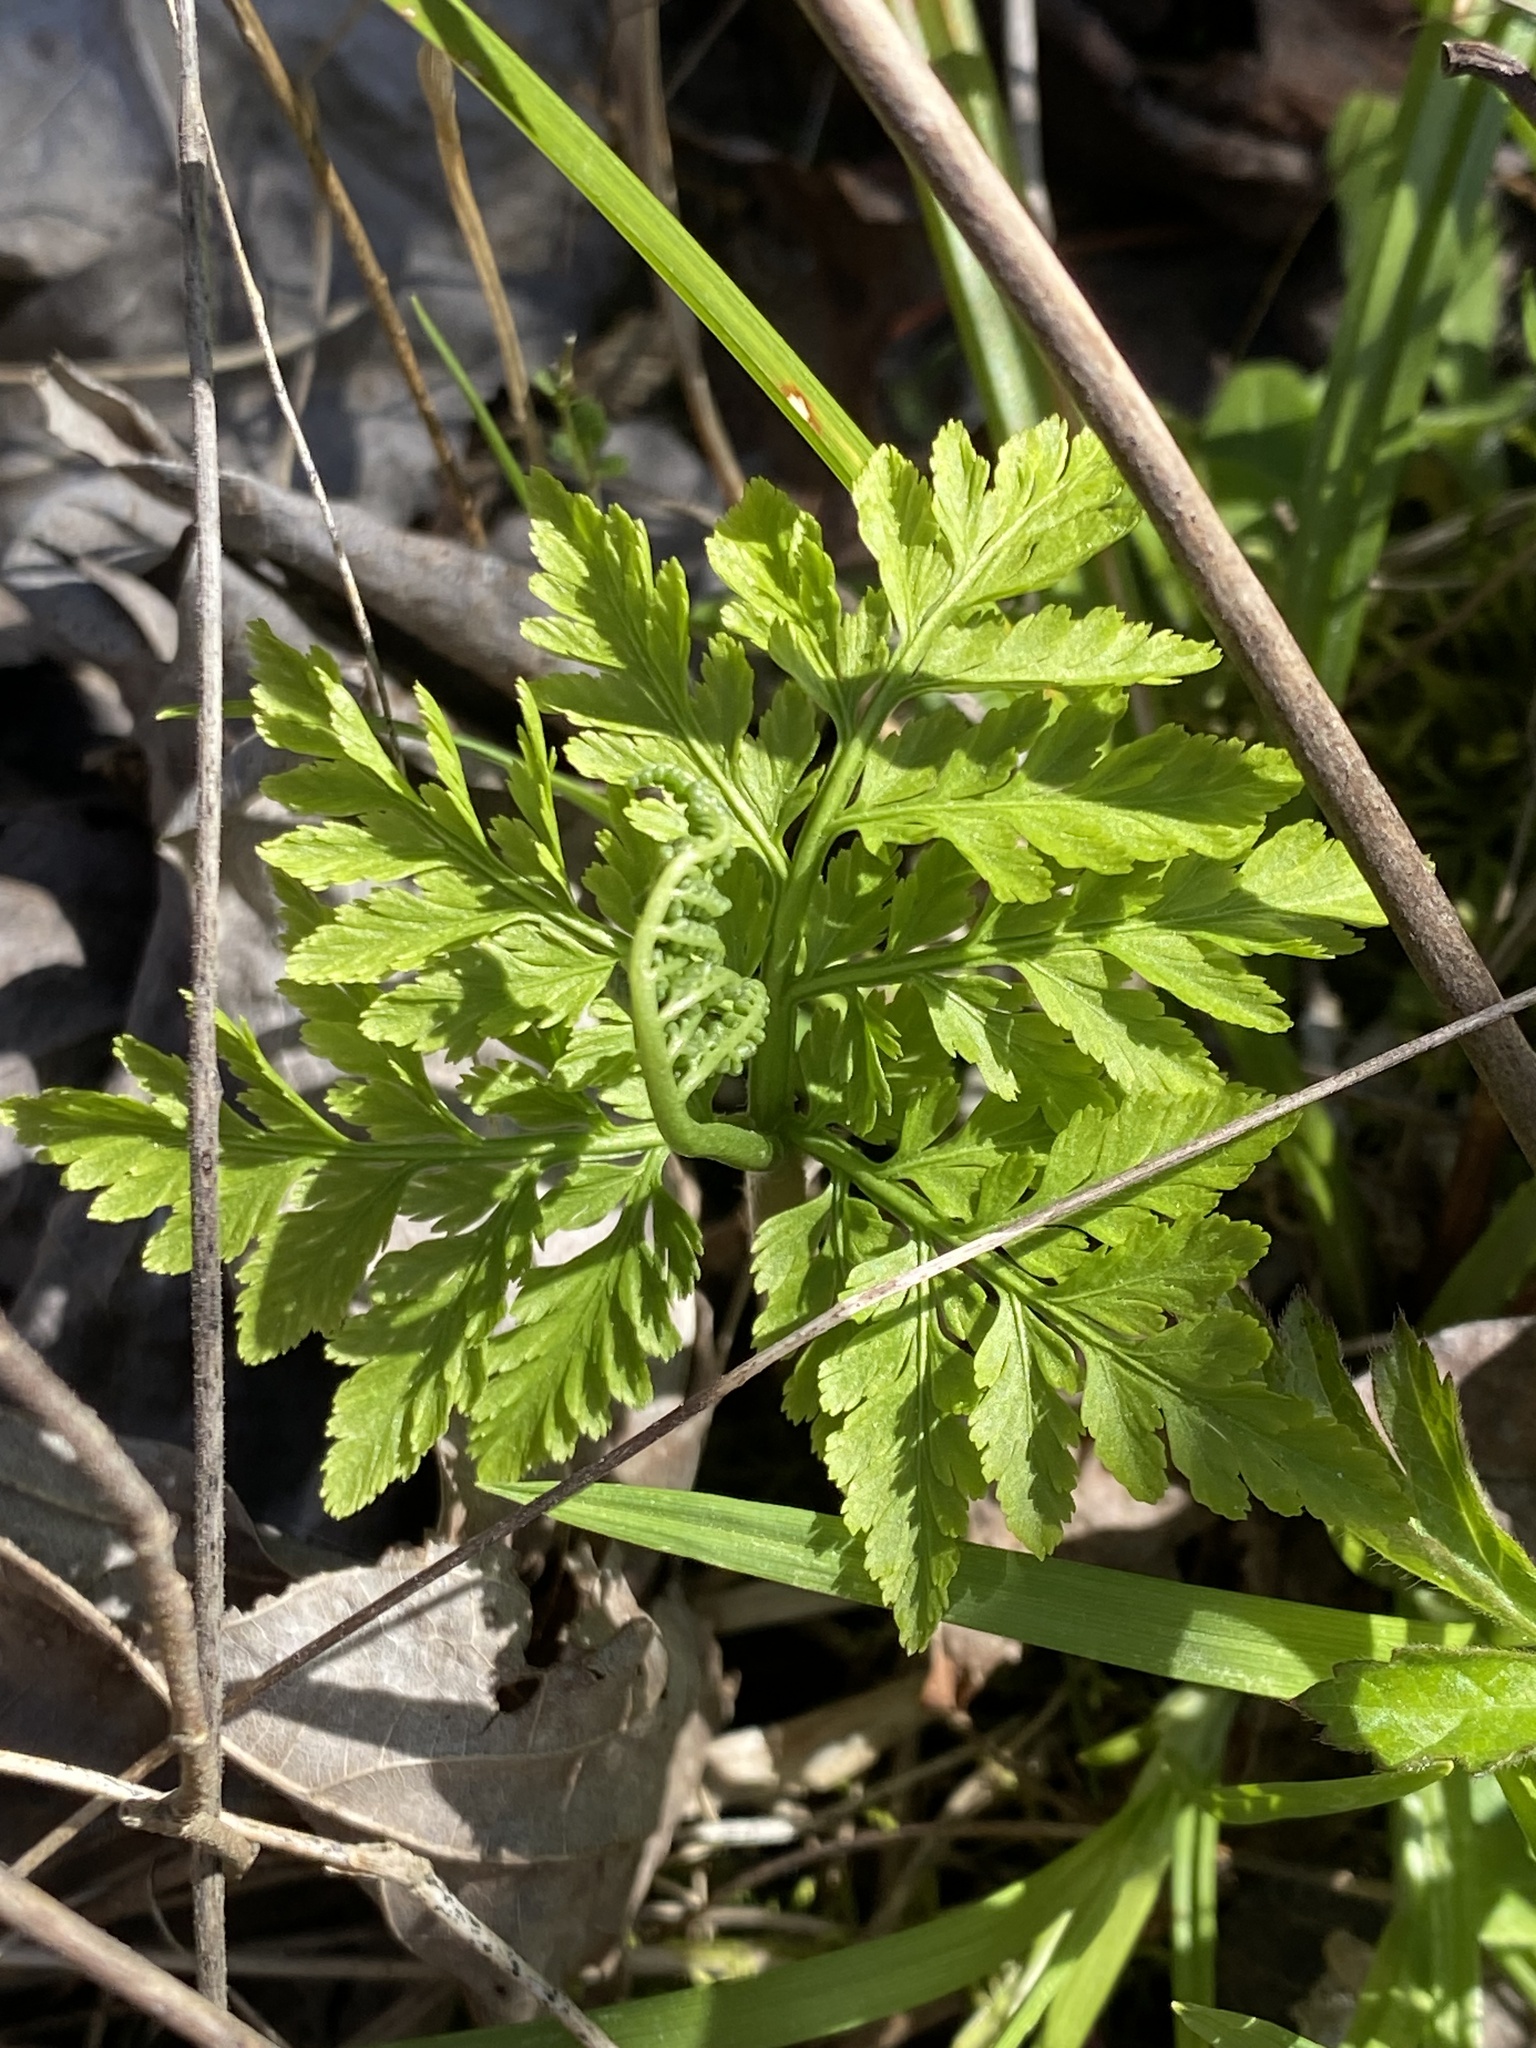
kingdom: Plantae
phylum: Tracheophyta
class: Polypodiopsida
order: Ophioglossales
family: Ophioglossaceae
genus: Botrypus
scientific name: Botrypus virginianus
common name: Common grapefern
